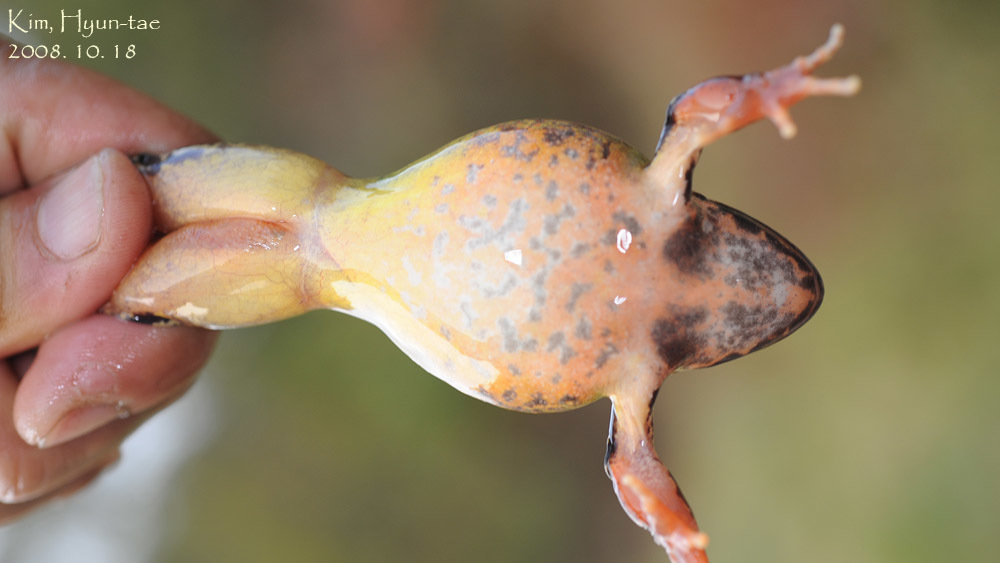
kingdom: Animalia
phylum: Chordata
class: Amphibia
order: Anura
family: Ranidae
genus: Rana
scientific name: Rana uenoi
